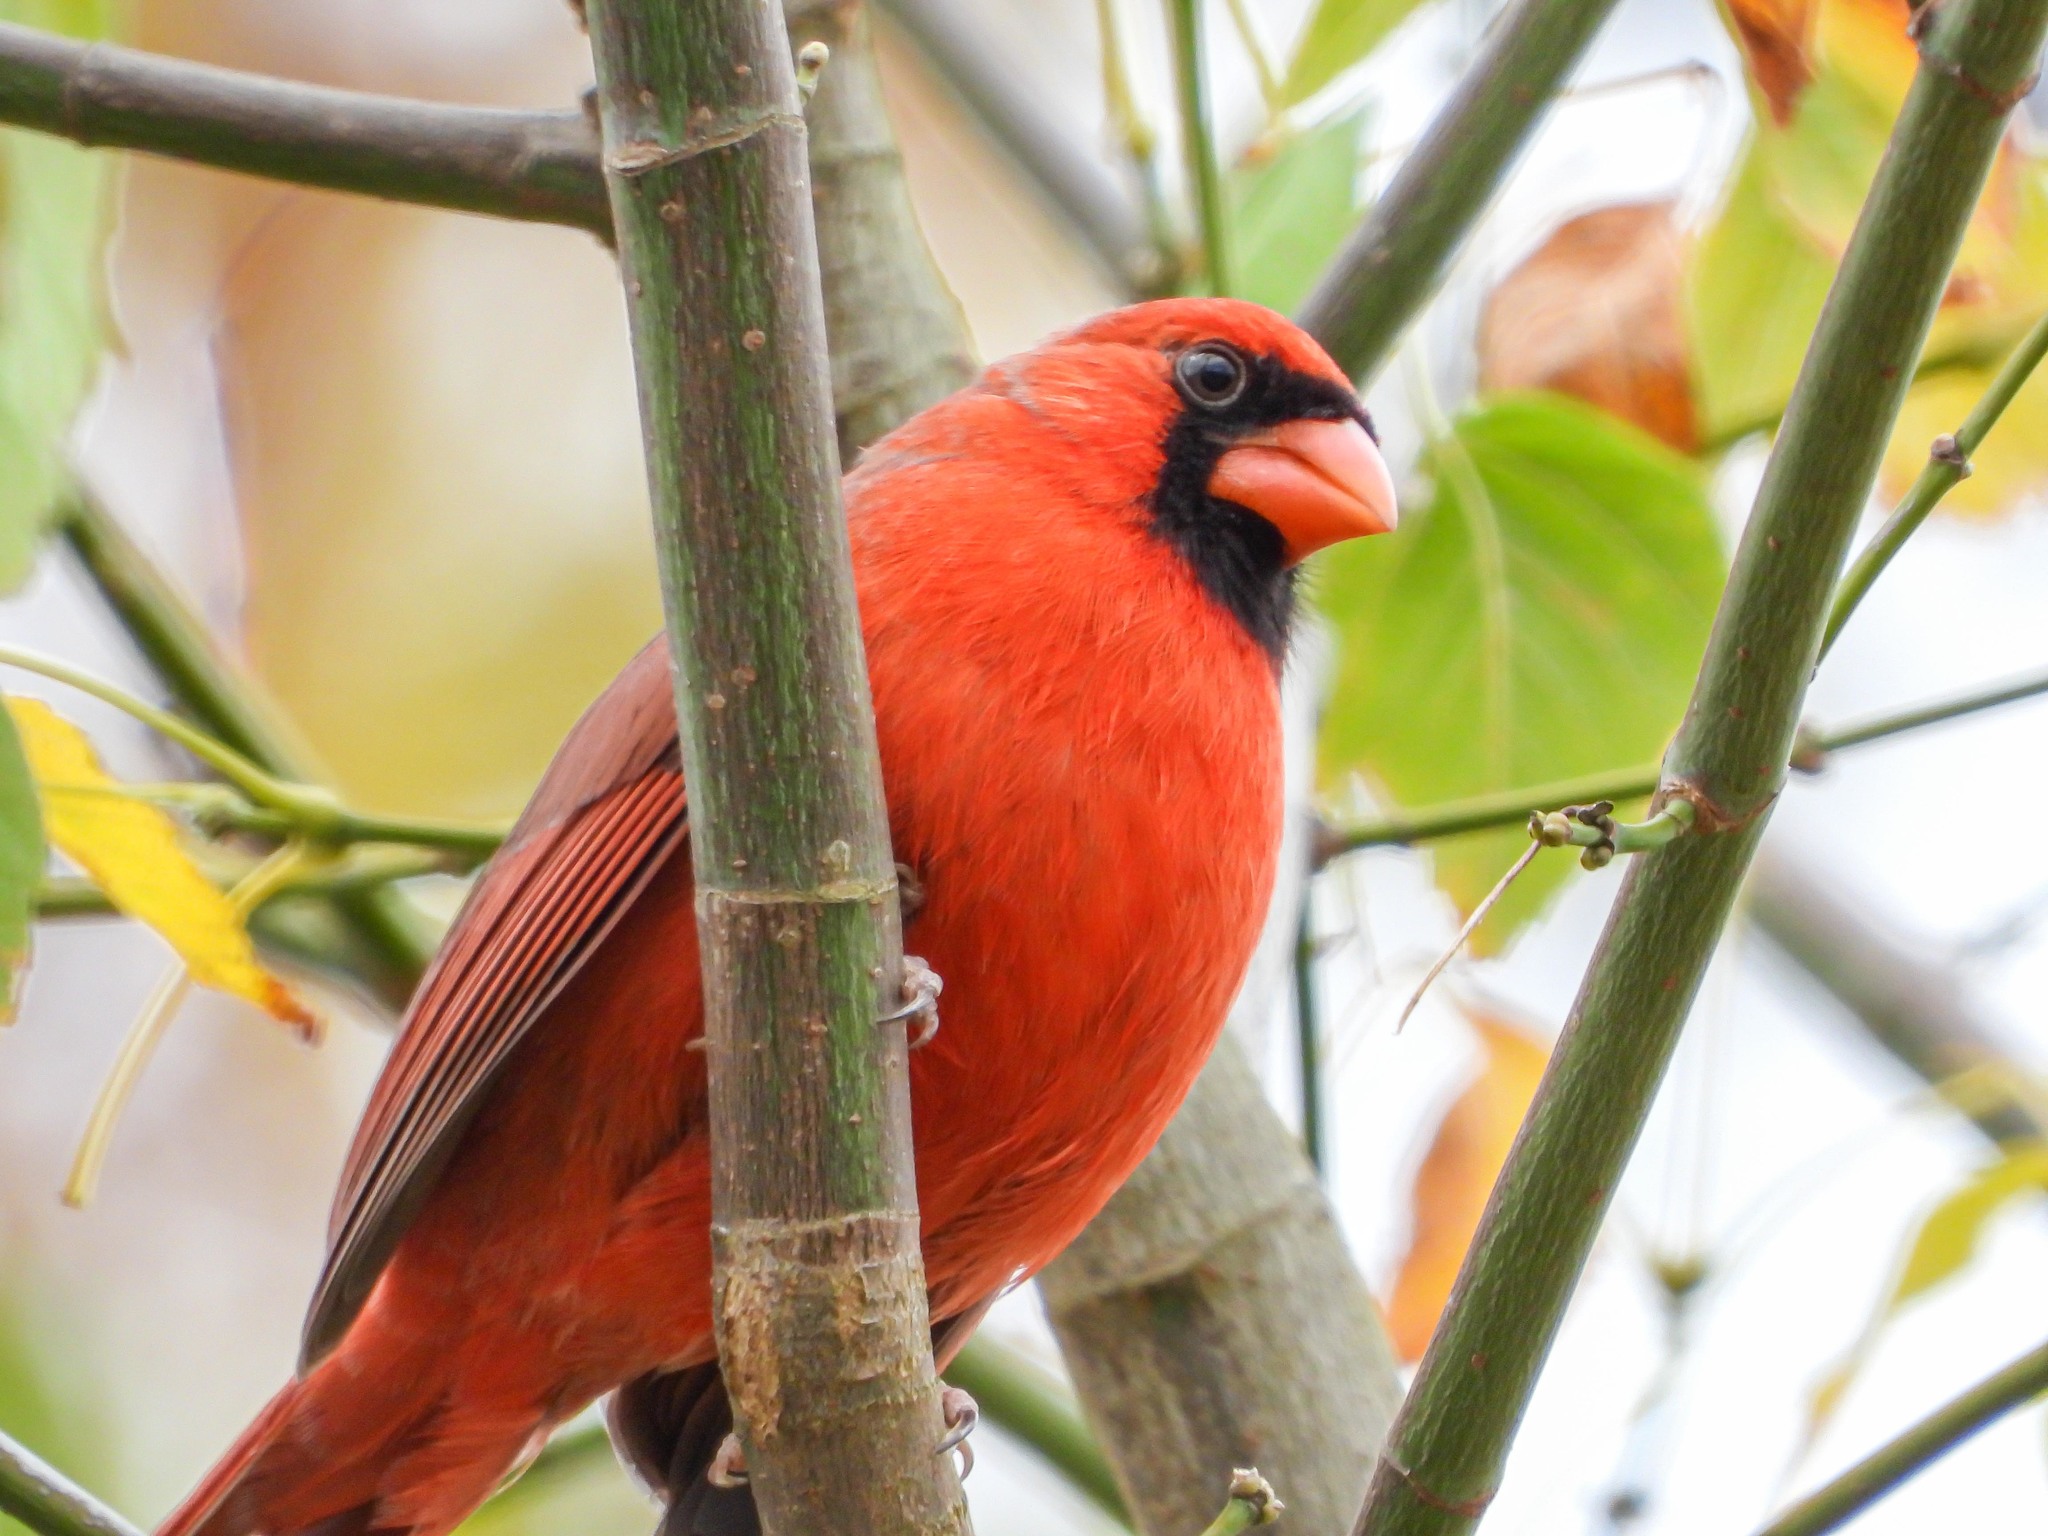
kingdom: Animalia
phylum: Chordata
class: Aves
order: Passeriformes
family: Cardinalidae
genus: Cardinalis
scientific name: Cardinalis cardinalis
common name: Northern cardinal
